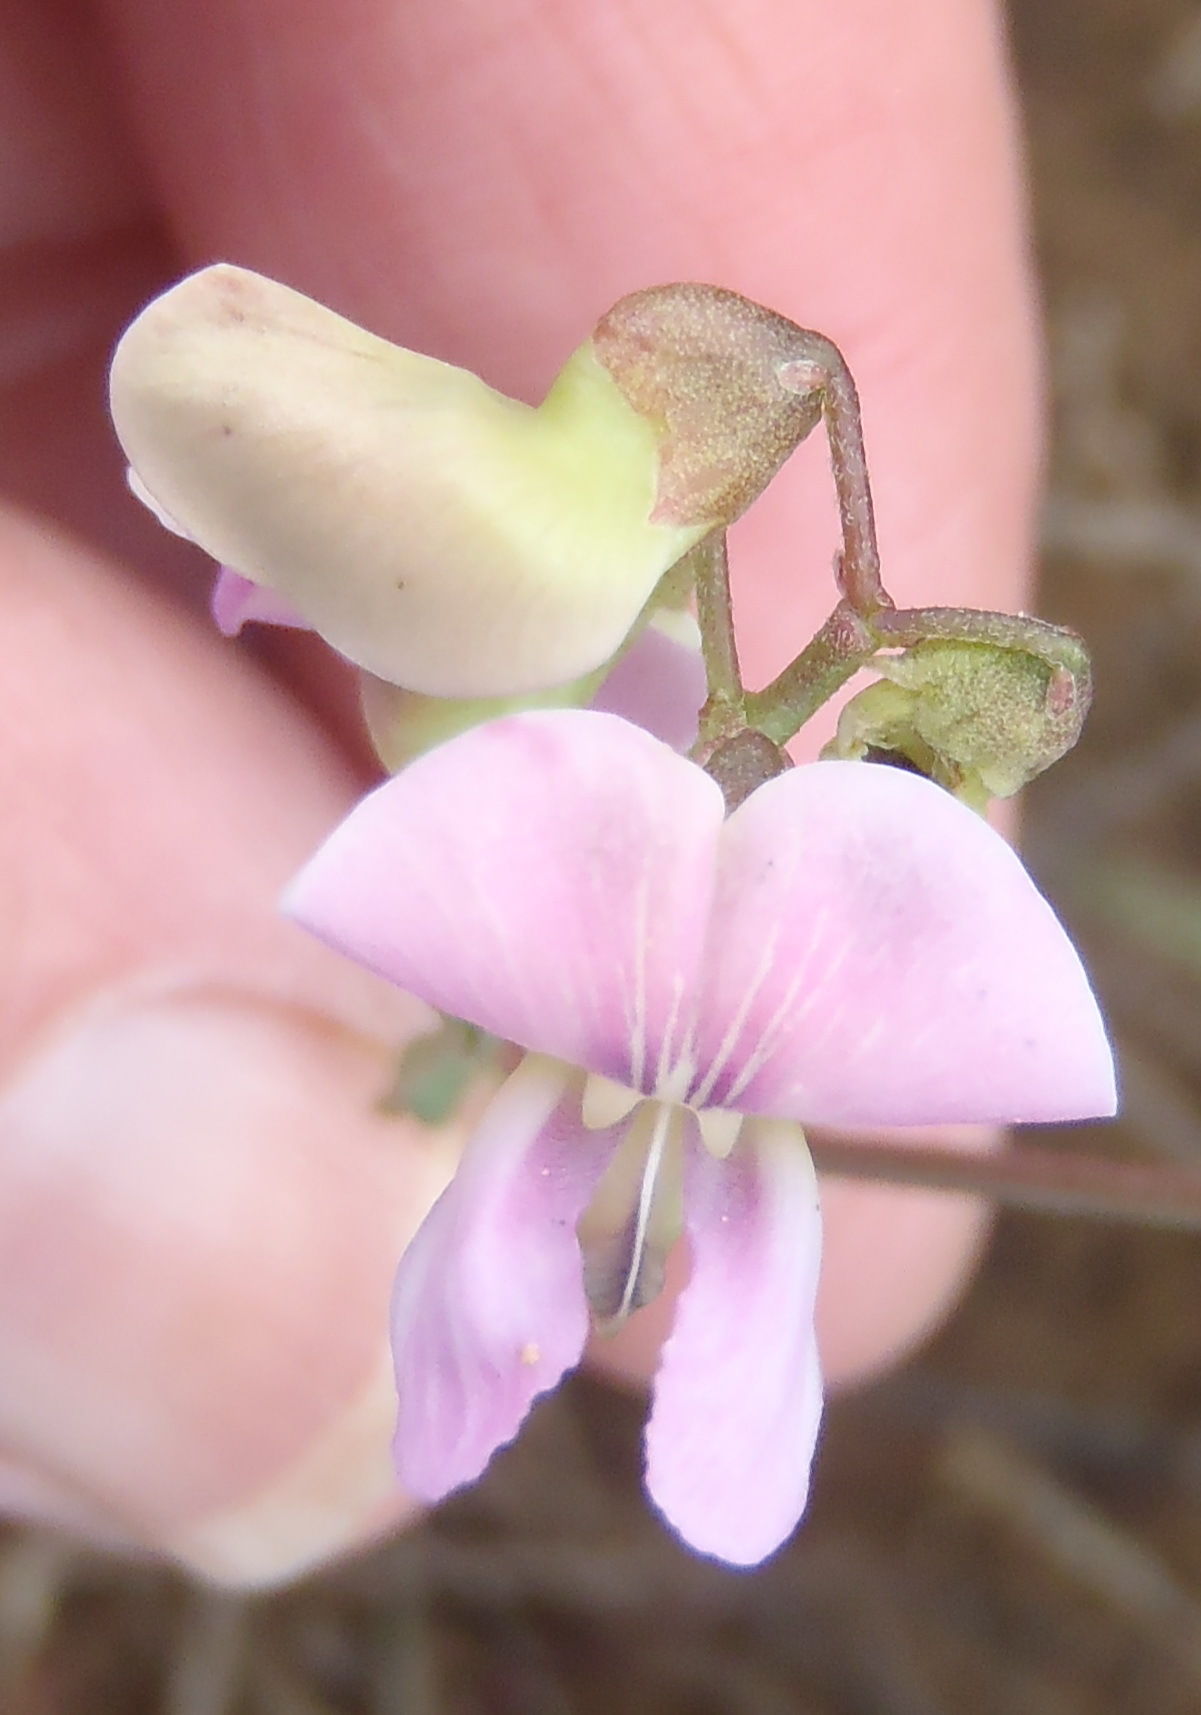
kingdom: Plantae
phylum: Tracheophyta
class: Magnoliopsida
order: Fabales
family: Fabaceae
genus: Dolichos
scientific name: Dolichos hastiformis
